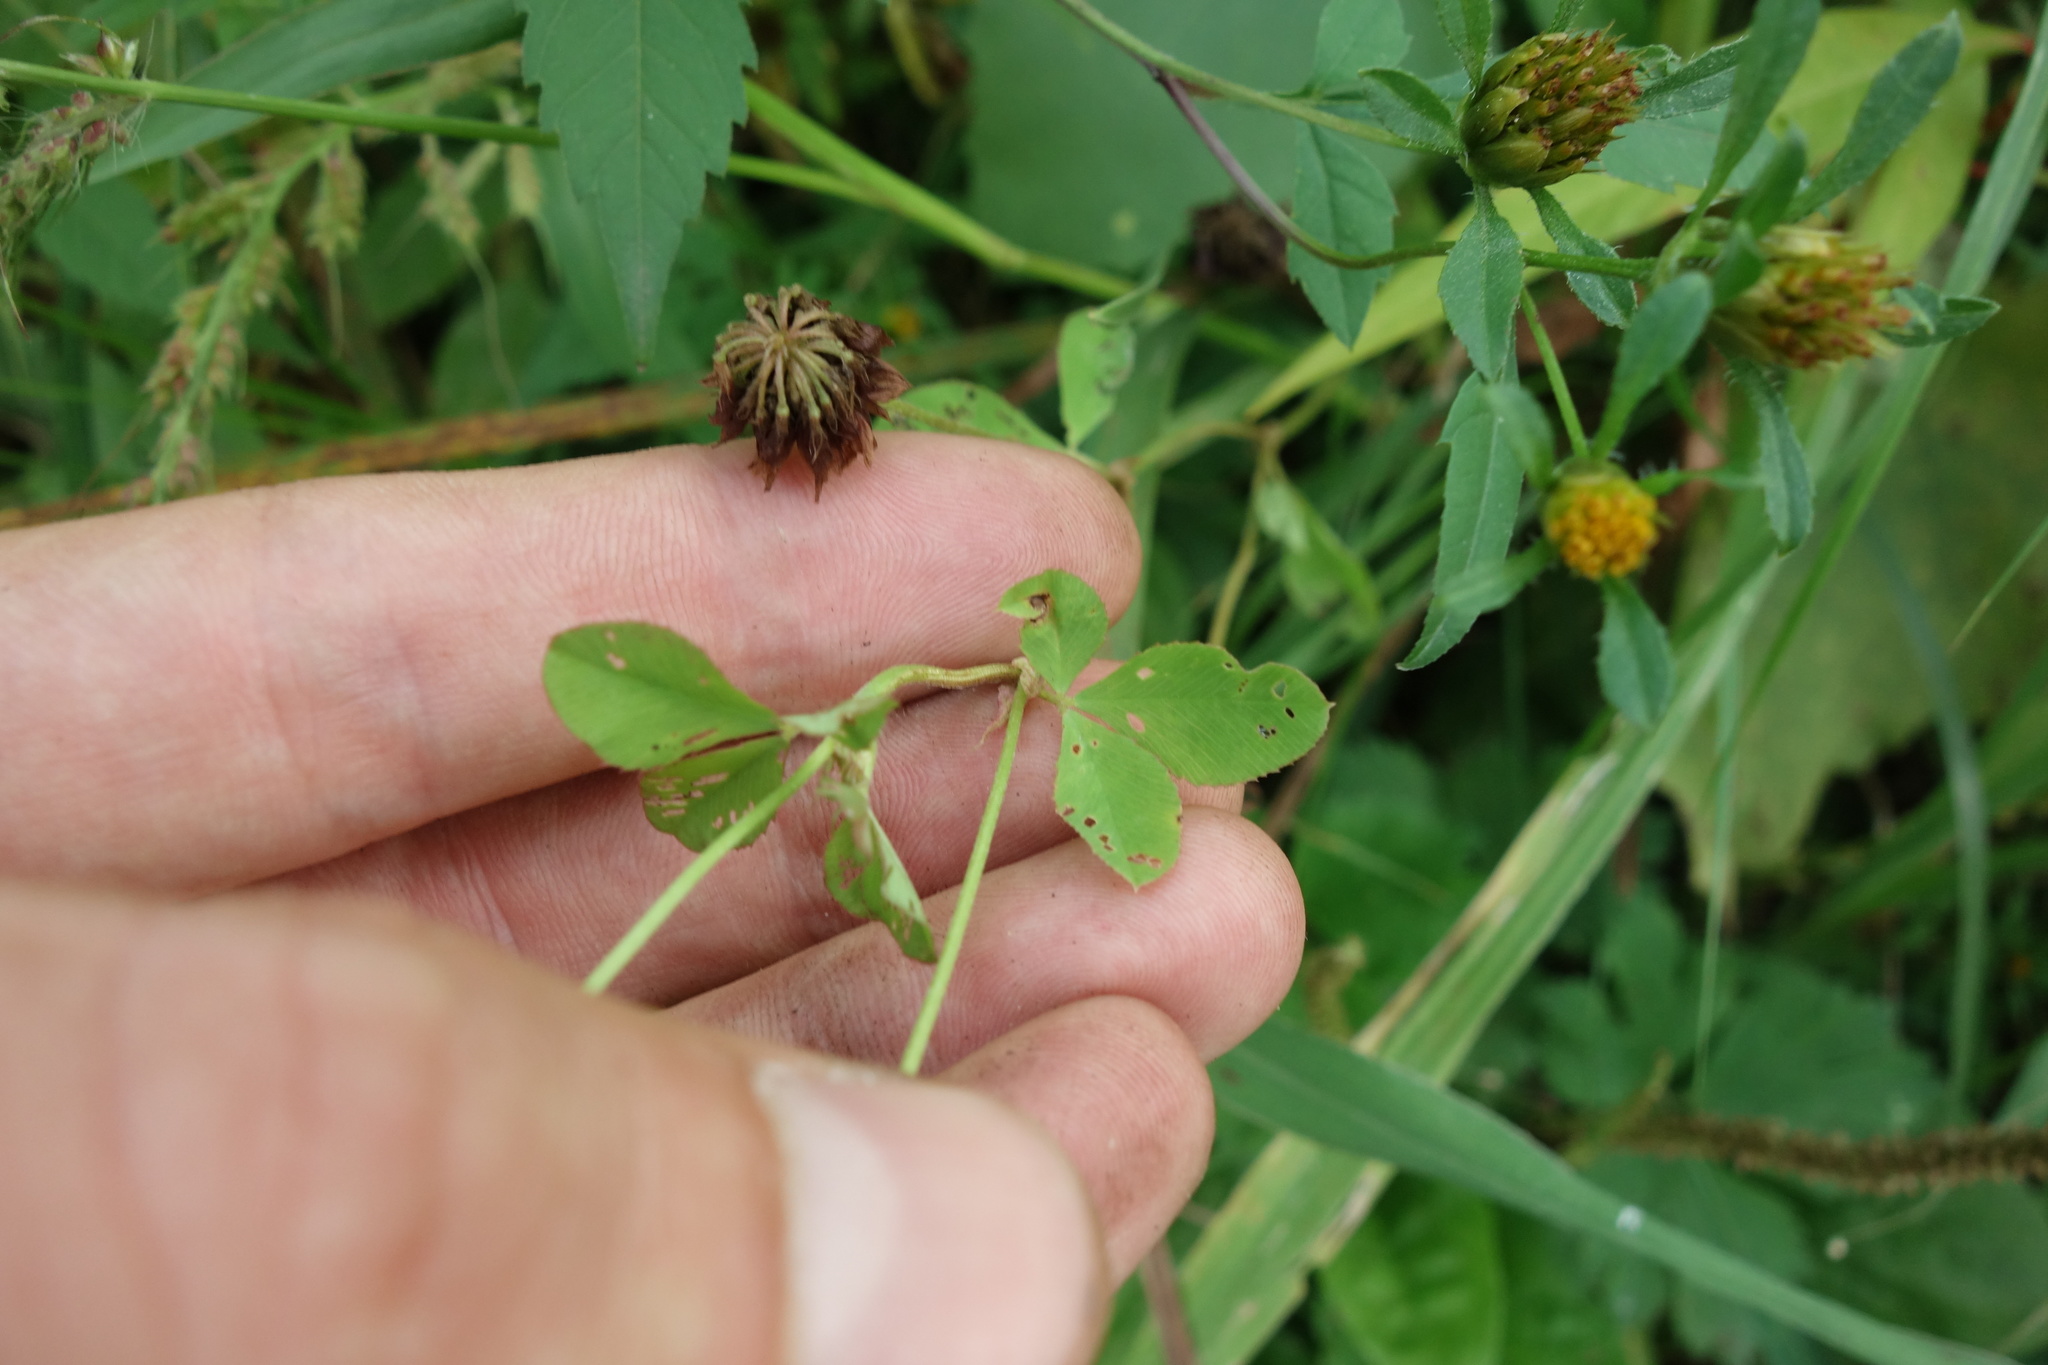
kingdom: Plantae
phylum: Tracheophyta
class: Magnoliopsida
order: Fabales
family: Fabaceae
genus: Trifolium
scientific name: Trifolium hybridum
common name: Alsike clover
